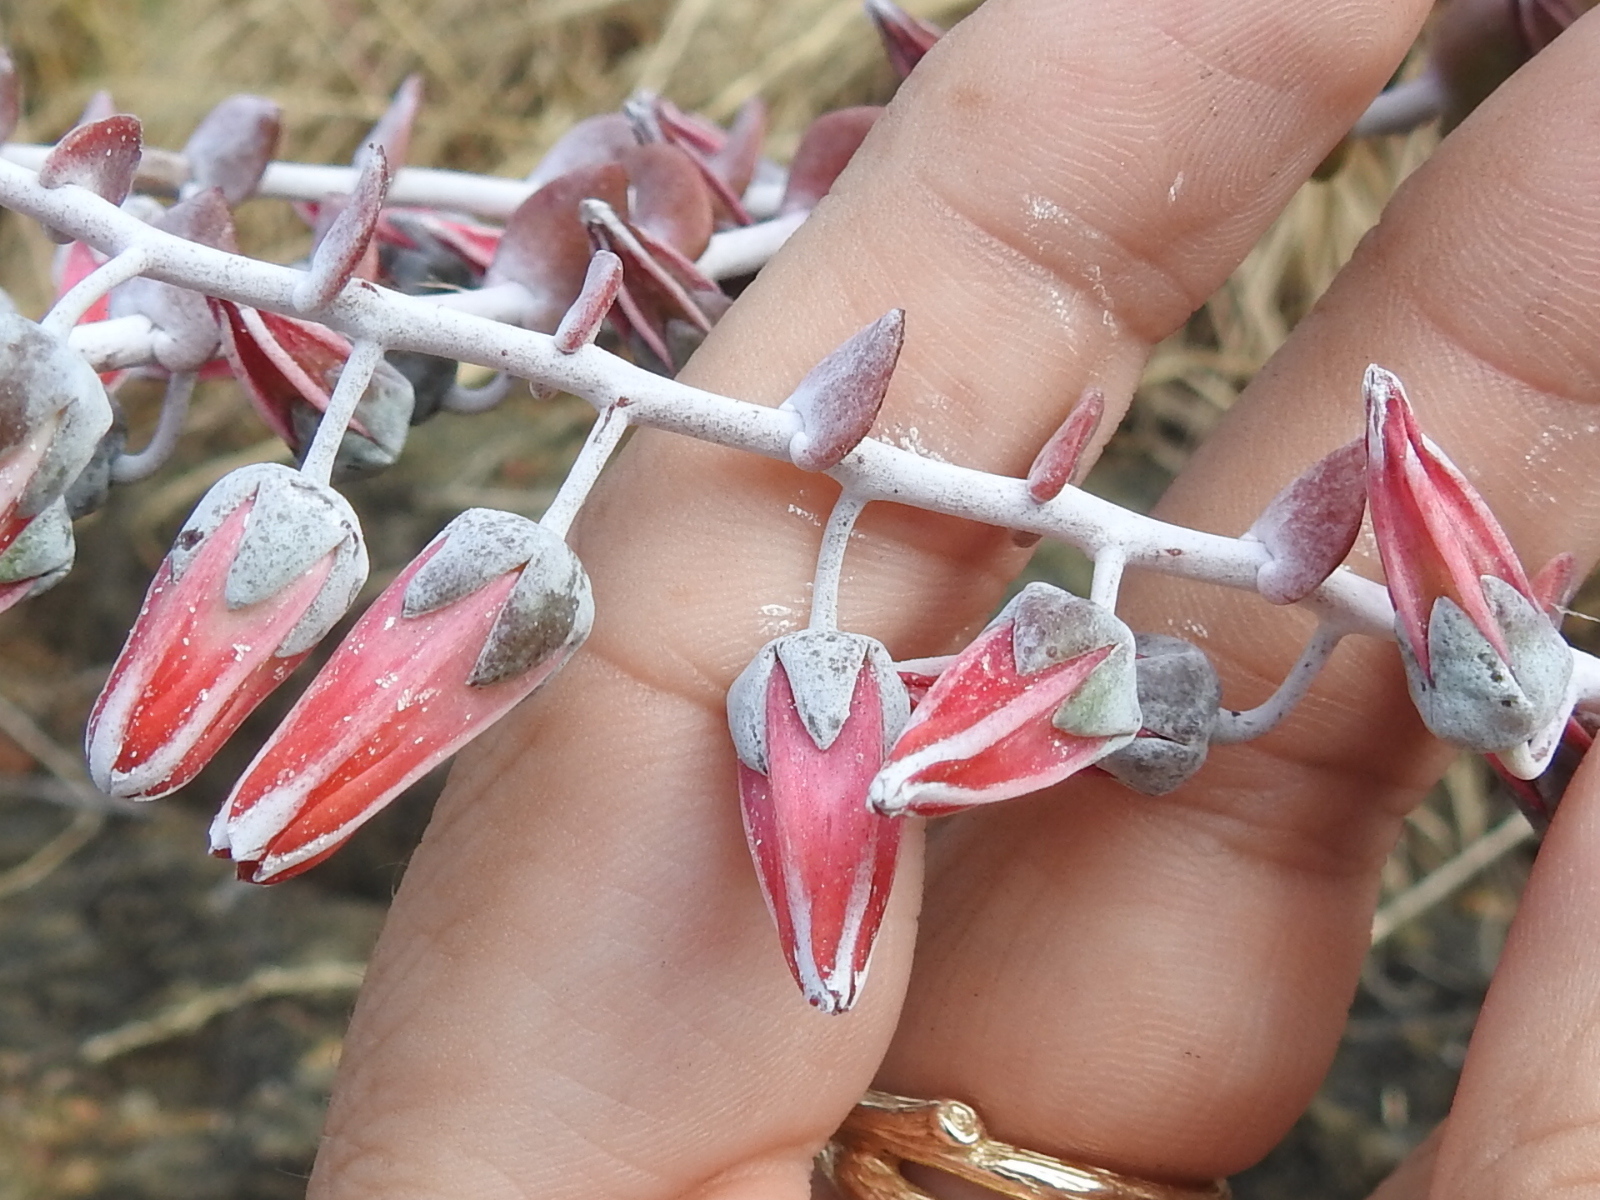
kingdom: Plantae
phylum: Tracheophyta
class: Magnoliopsida
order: Saxifragales
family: Crassulaceae
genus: Dudleya
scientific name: Dudleya pulverulenta
